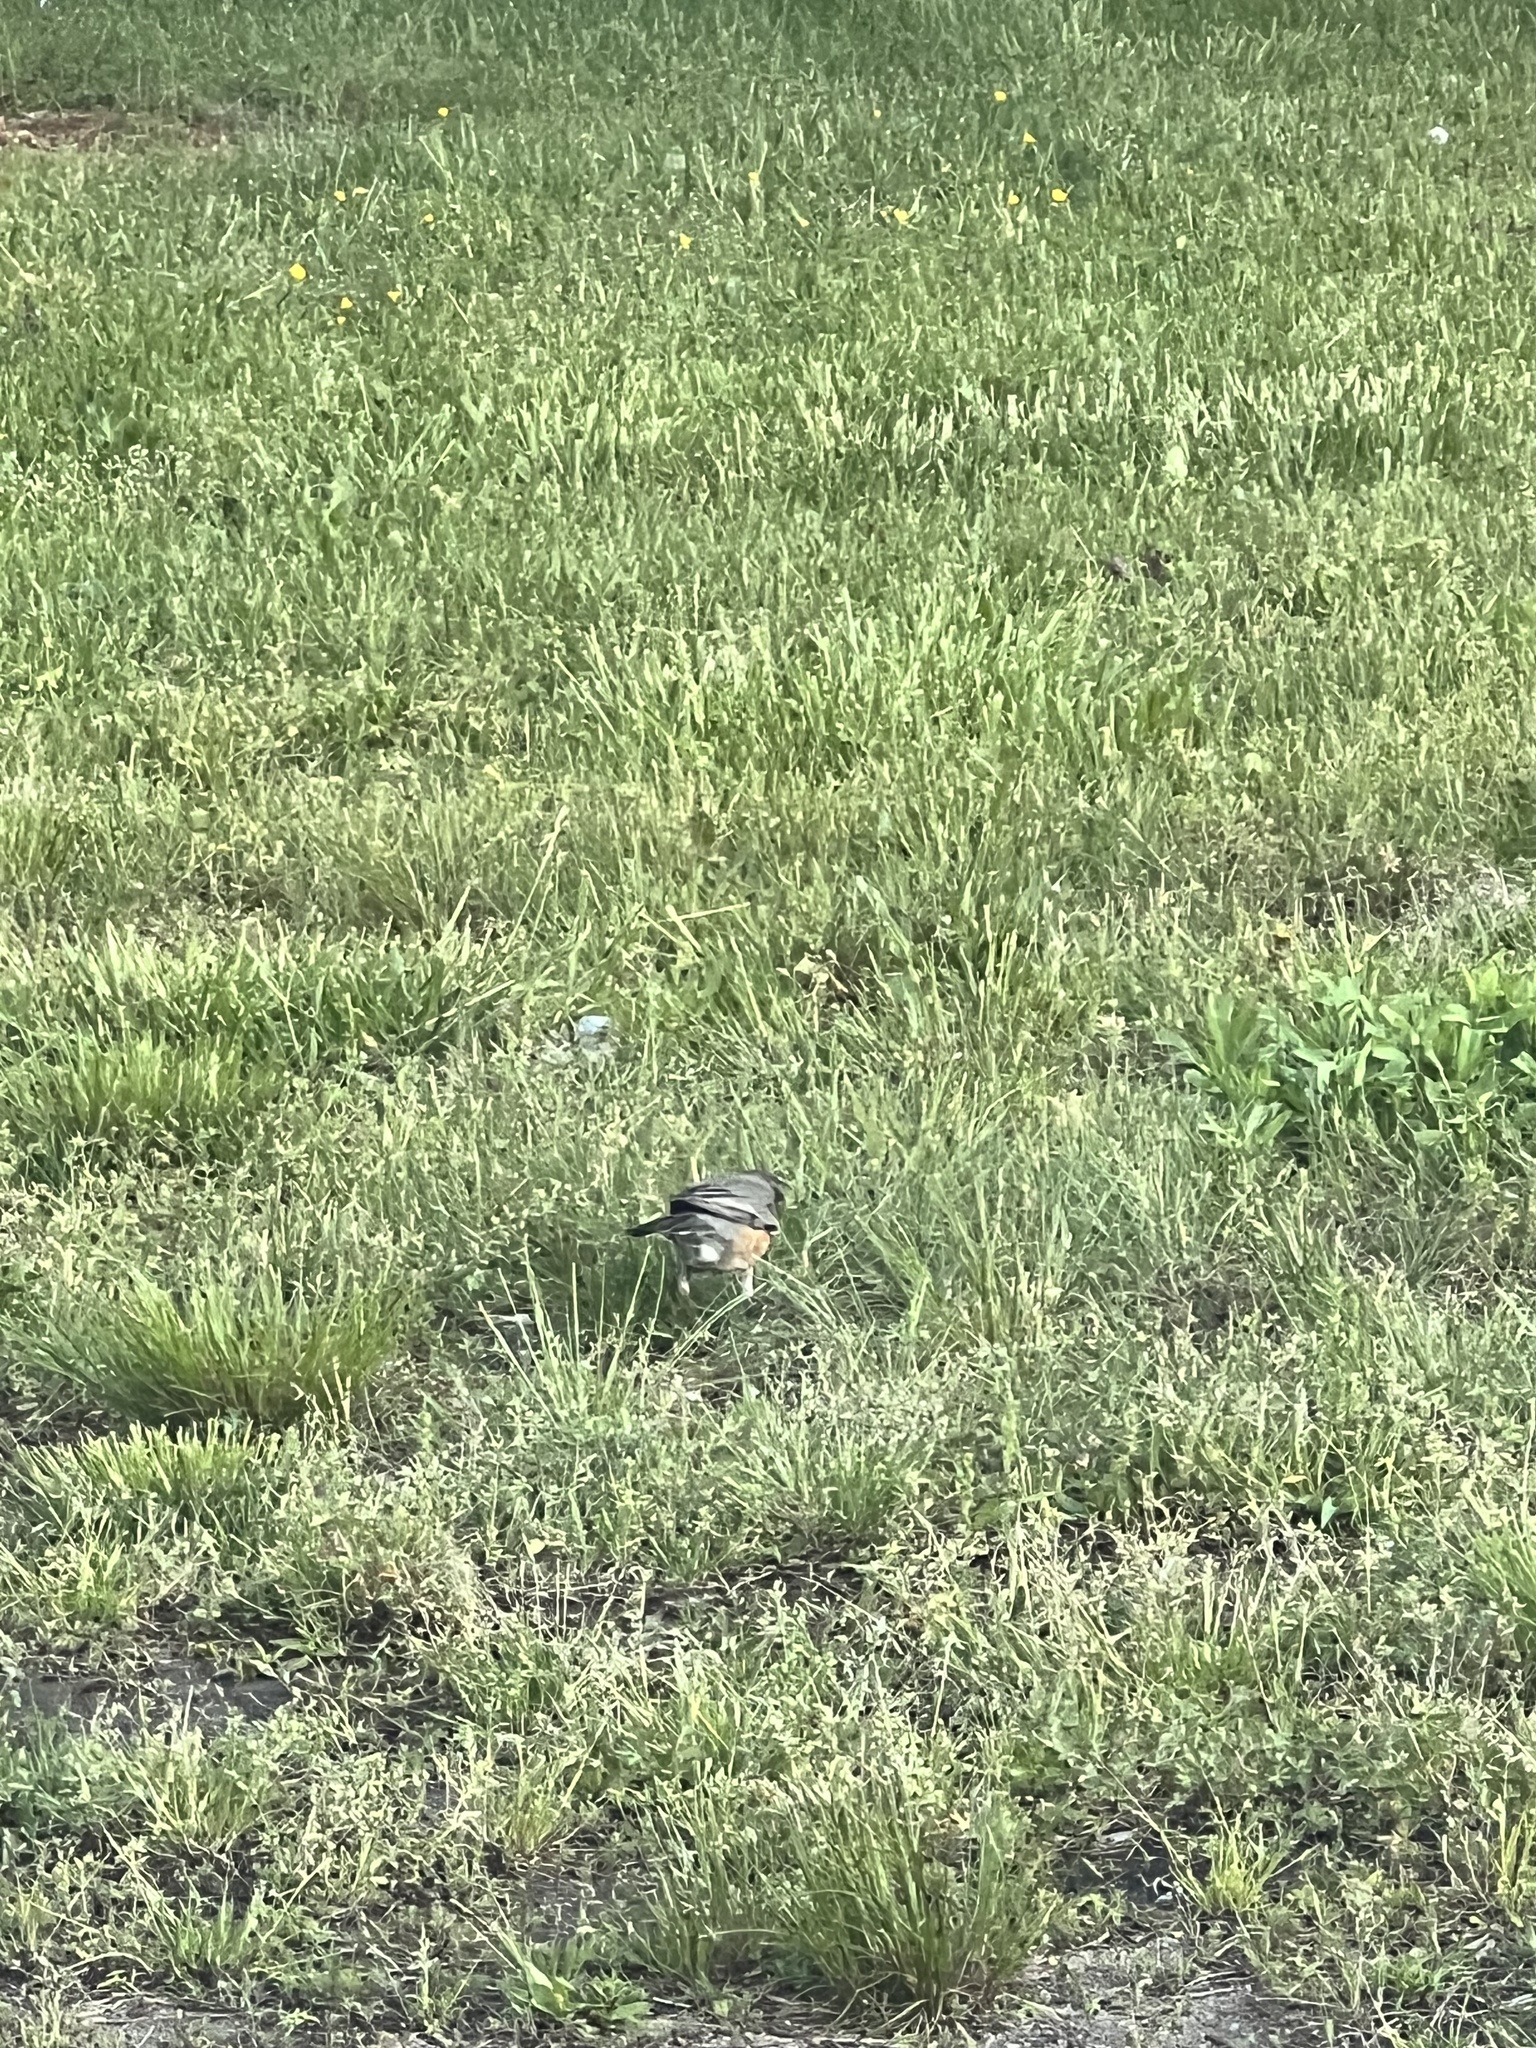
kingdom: Animalia
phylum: Chordata
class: Aves
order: Passeriformes
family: Turdidae
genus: Turdus
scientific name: Turdus migratorius
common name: American robin
